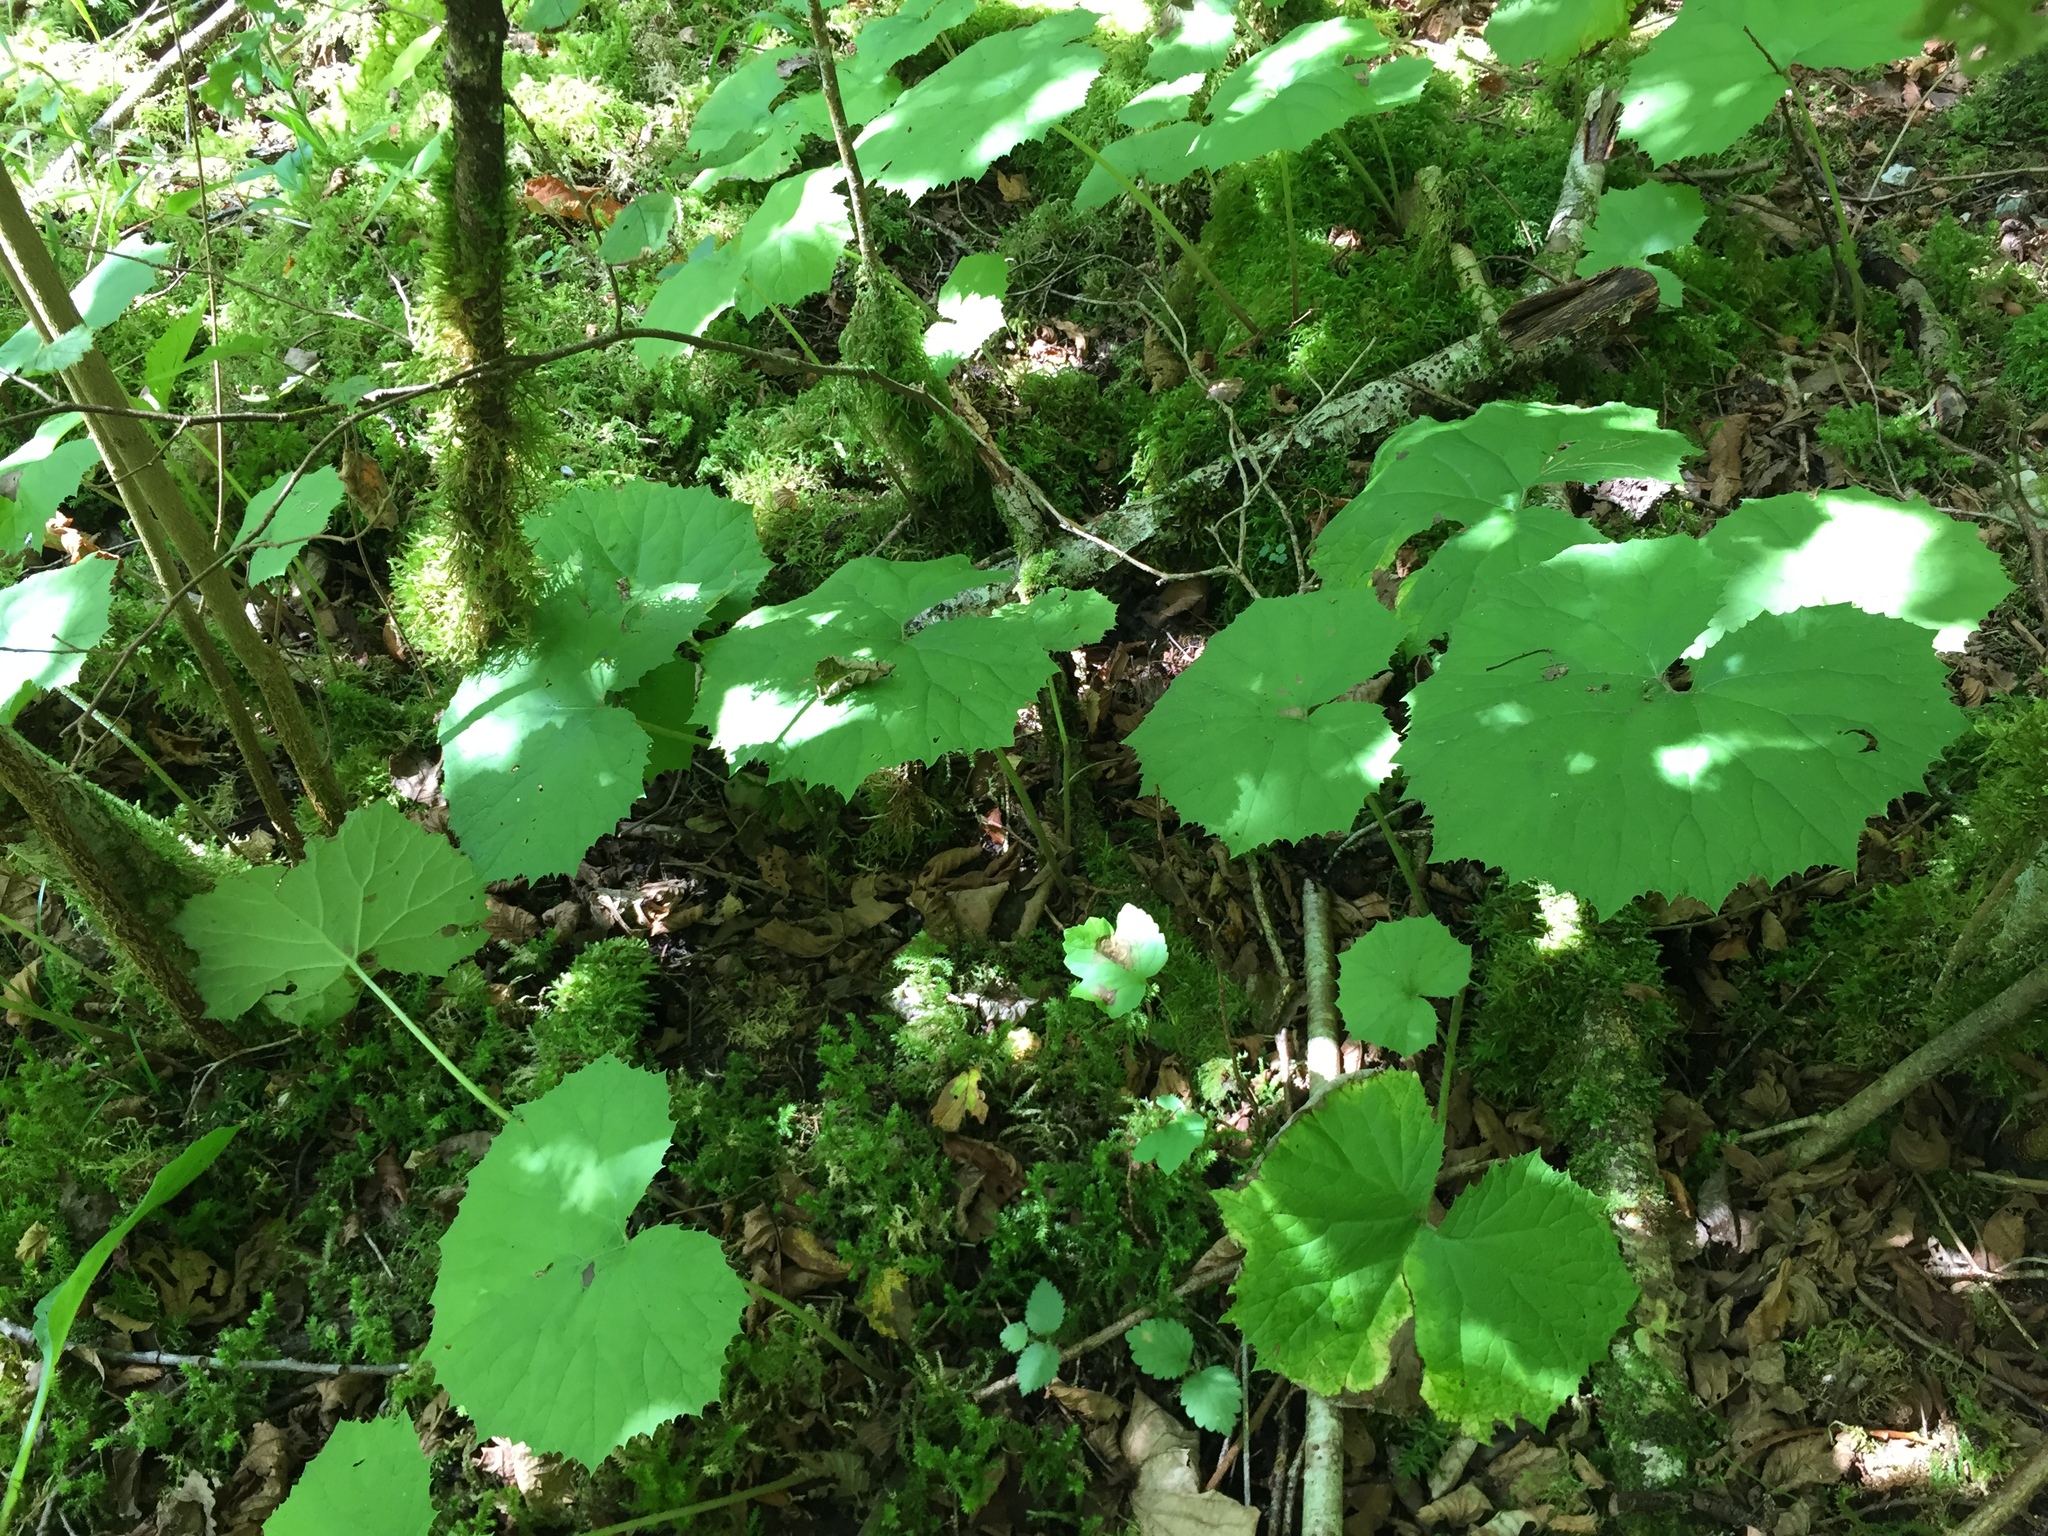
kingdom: Plantae
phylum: Tracheophyta
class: Magnoliopsida
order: Asterales
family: Asteraceae
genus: Petasites
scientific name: Petasites albus
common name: White butterbur
